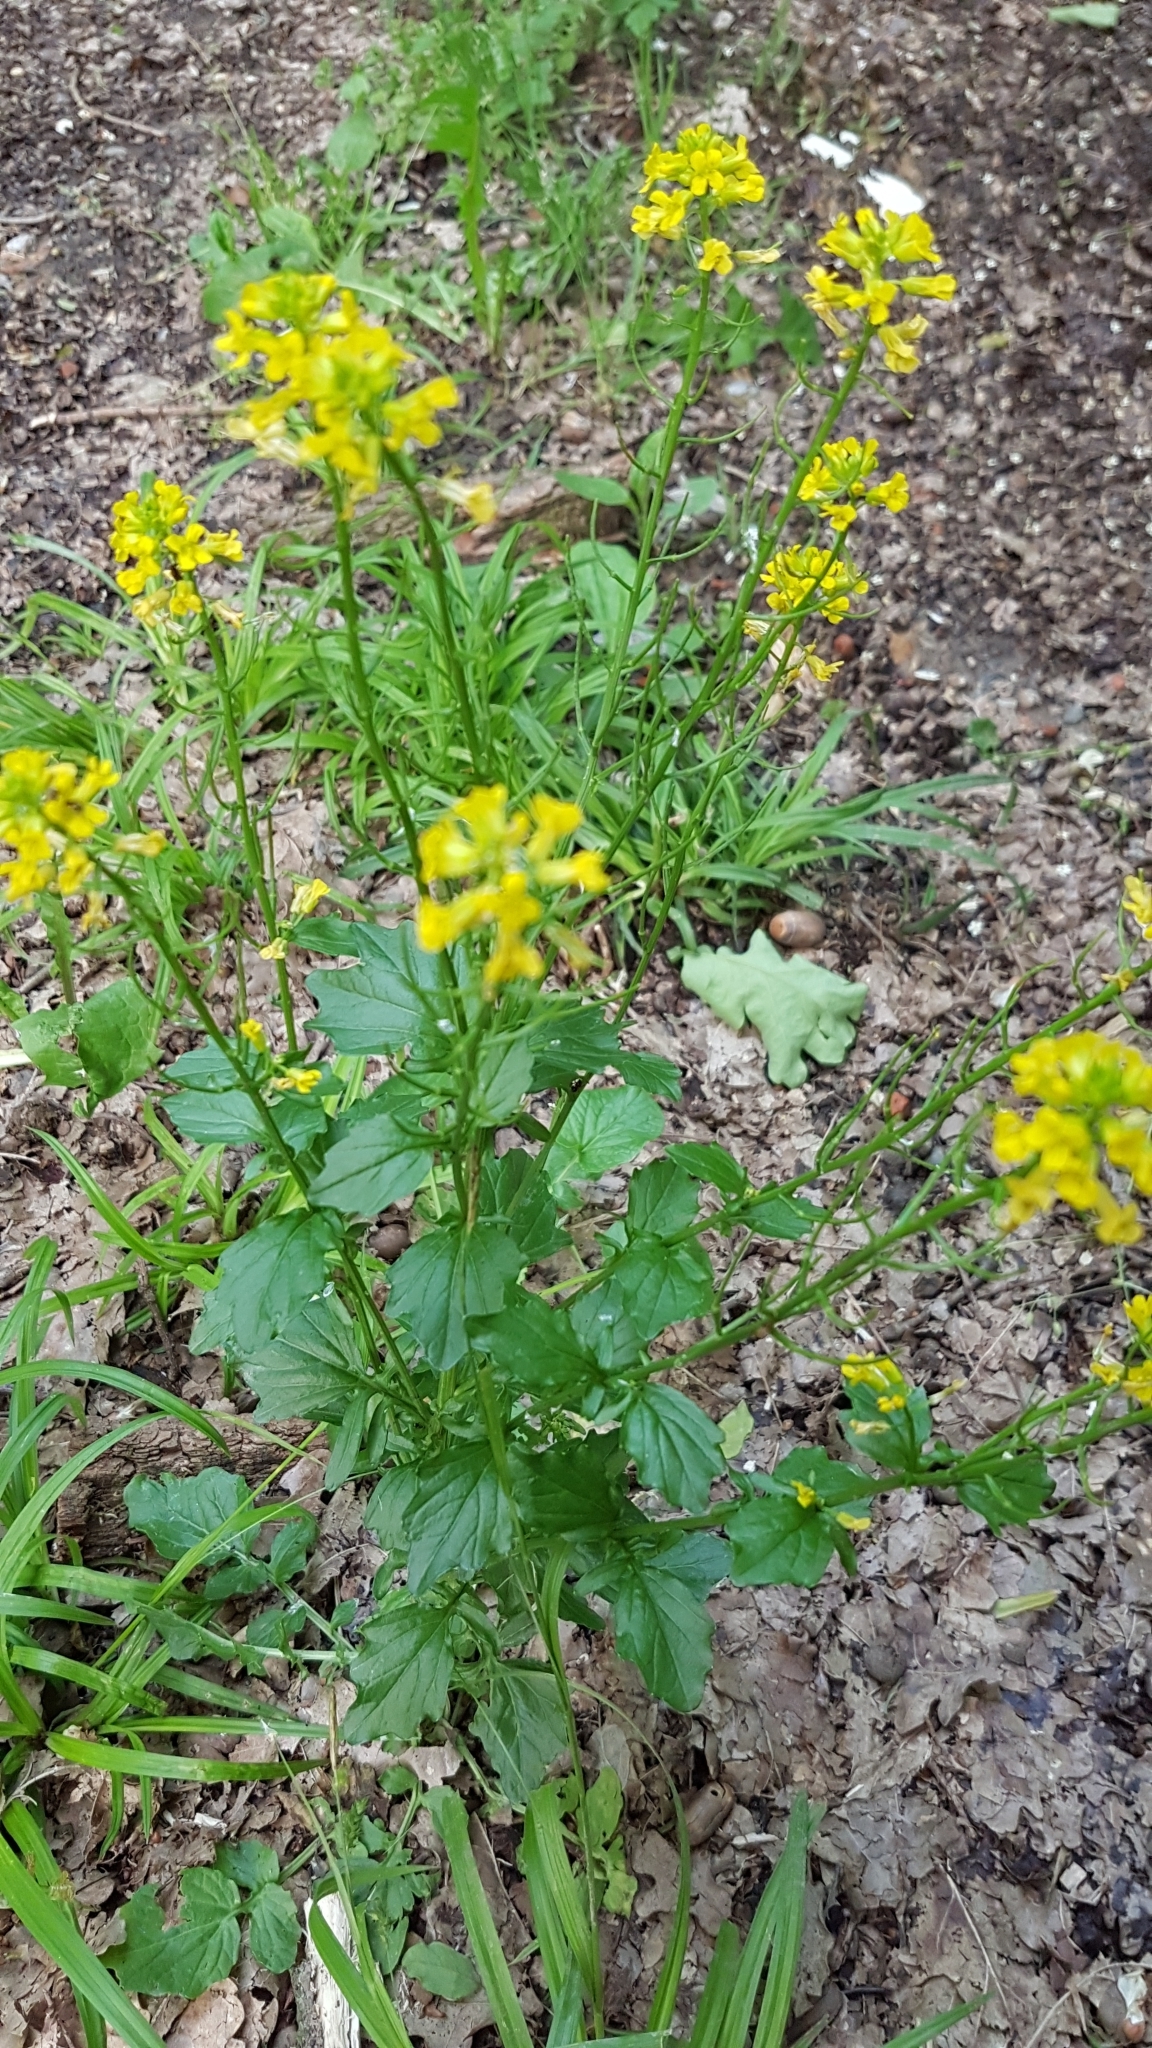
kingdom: Plantae
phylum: Tracheophyta
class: Magnoliopsida
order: Brassicales
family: Brassicaceae
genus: Barbarea
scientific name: Barbarea vulgaris
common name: Cressy-greens
